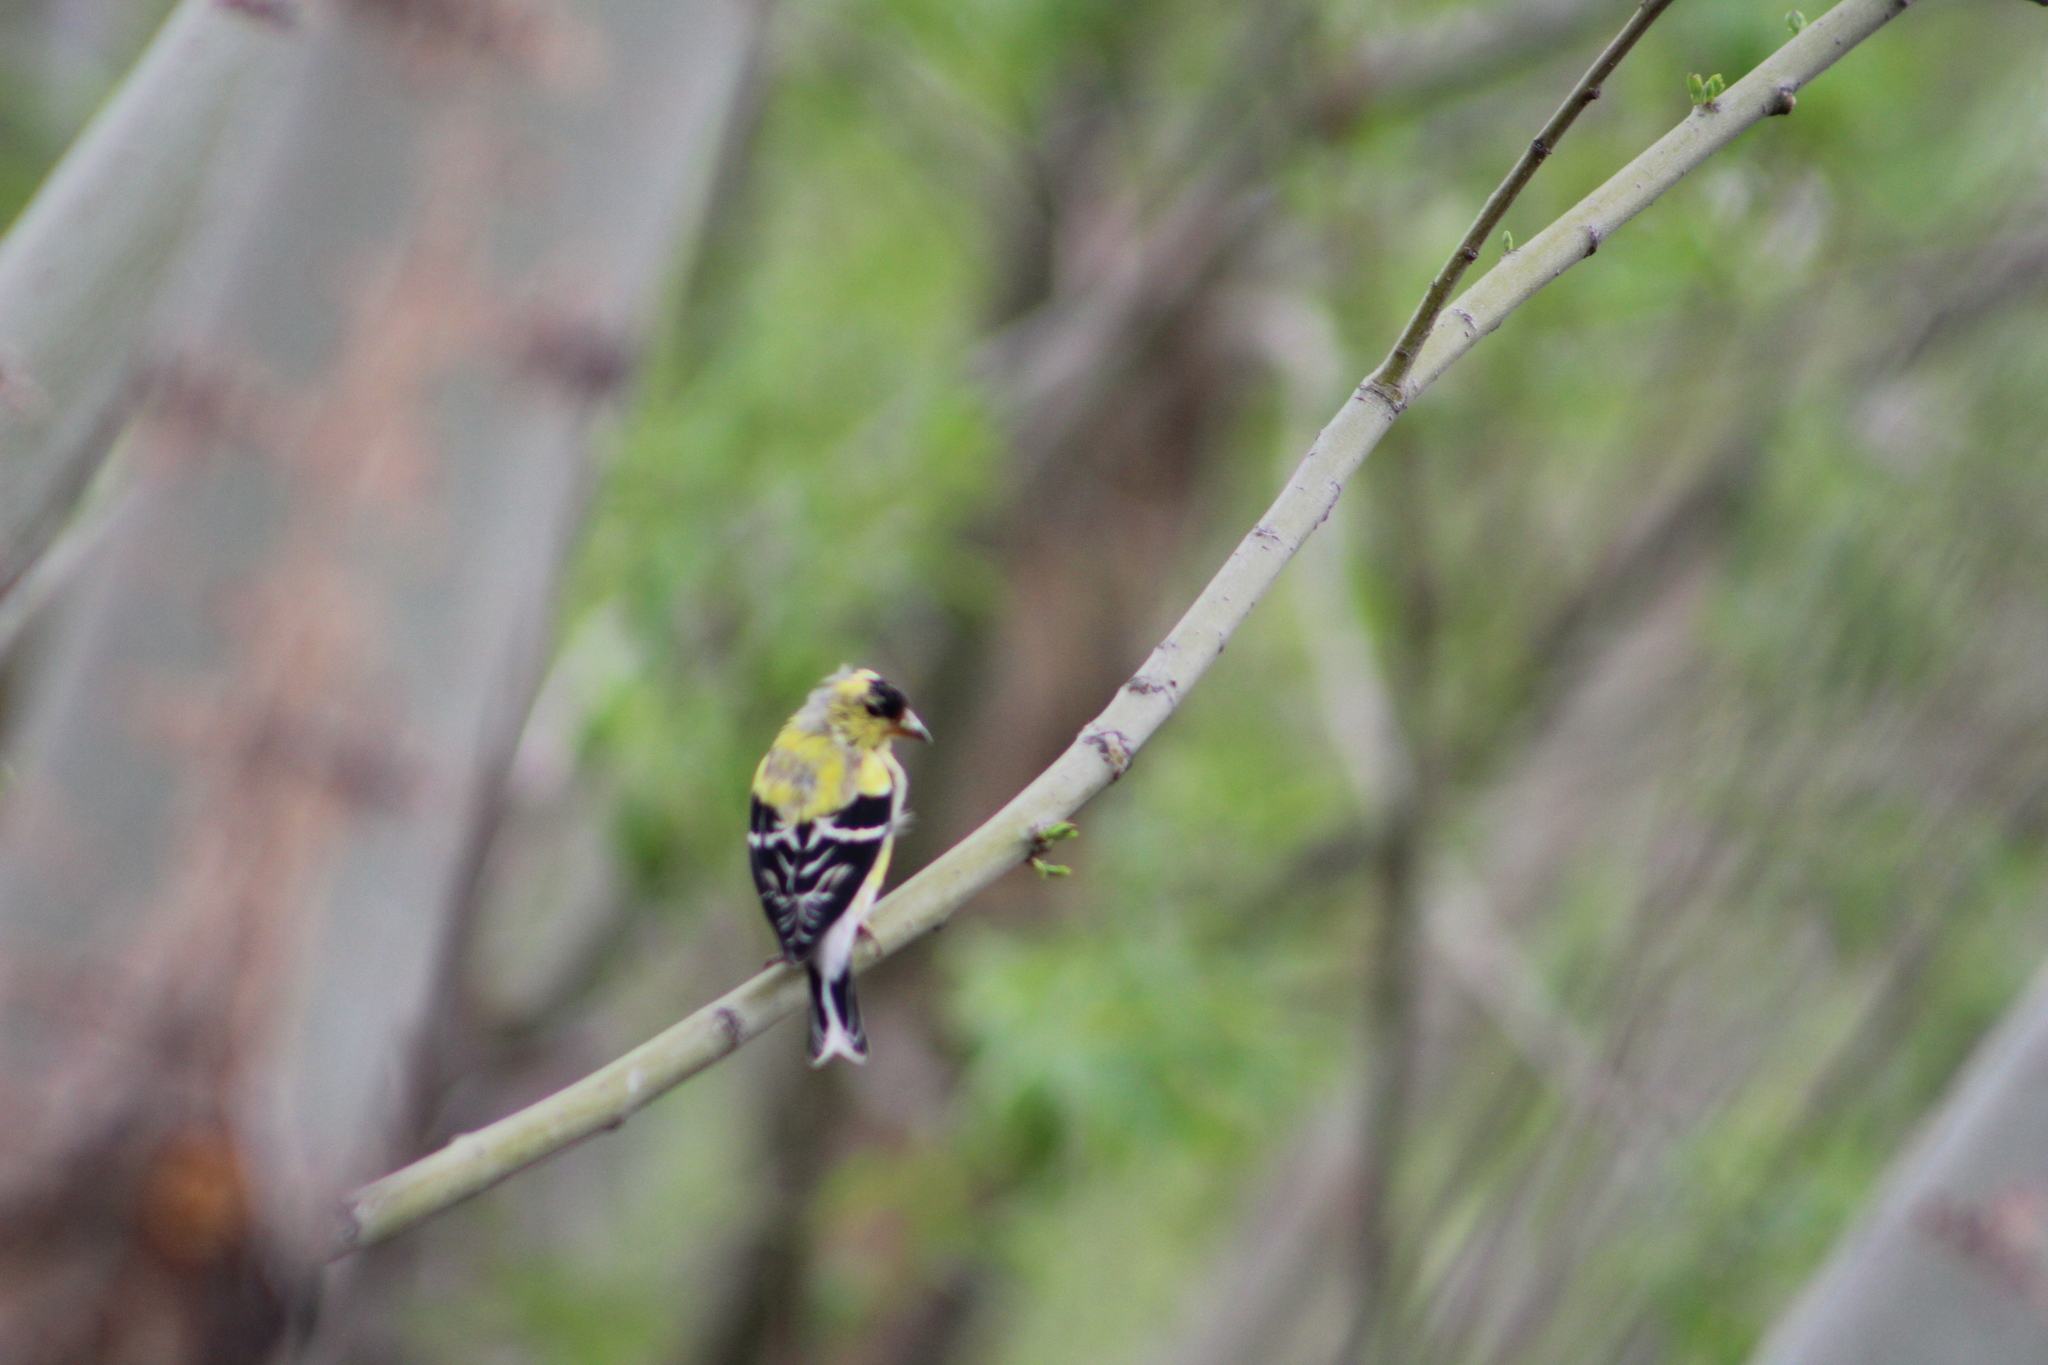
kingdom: Animalia
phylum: Chordata
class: Aves
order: Passeriformes
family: Fringillidae
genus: Spinus
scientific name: Spinus tristis
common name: American goldfinch
